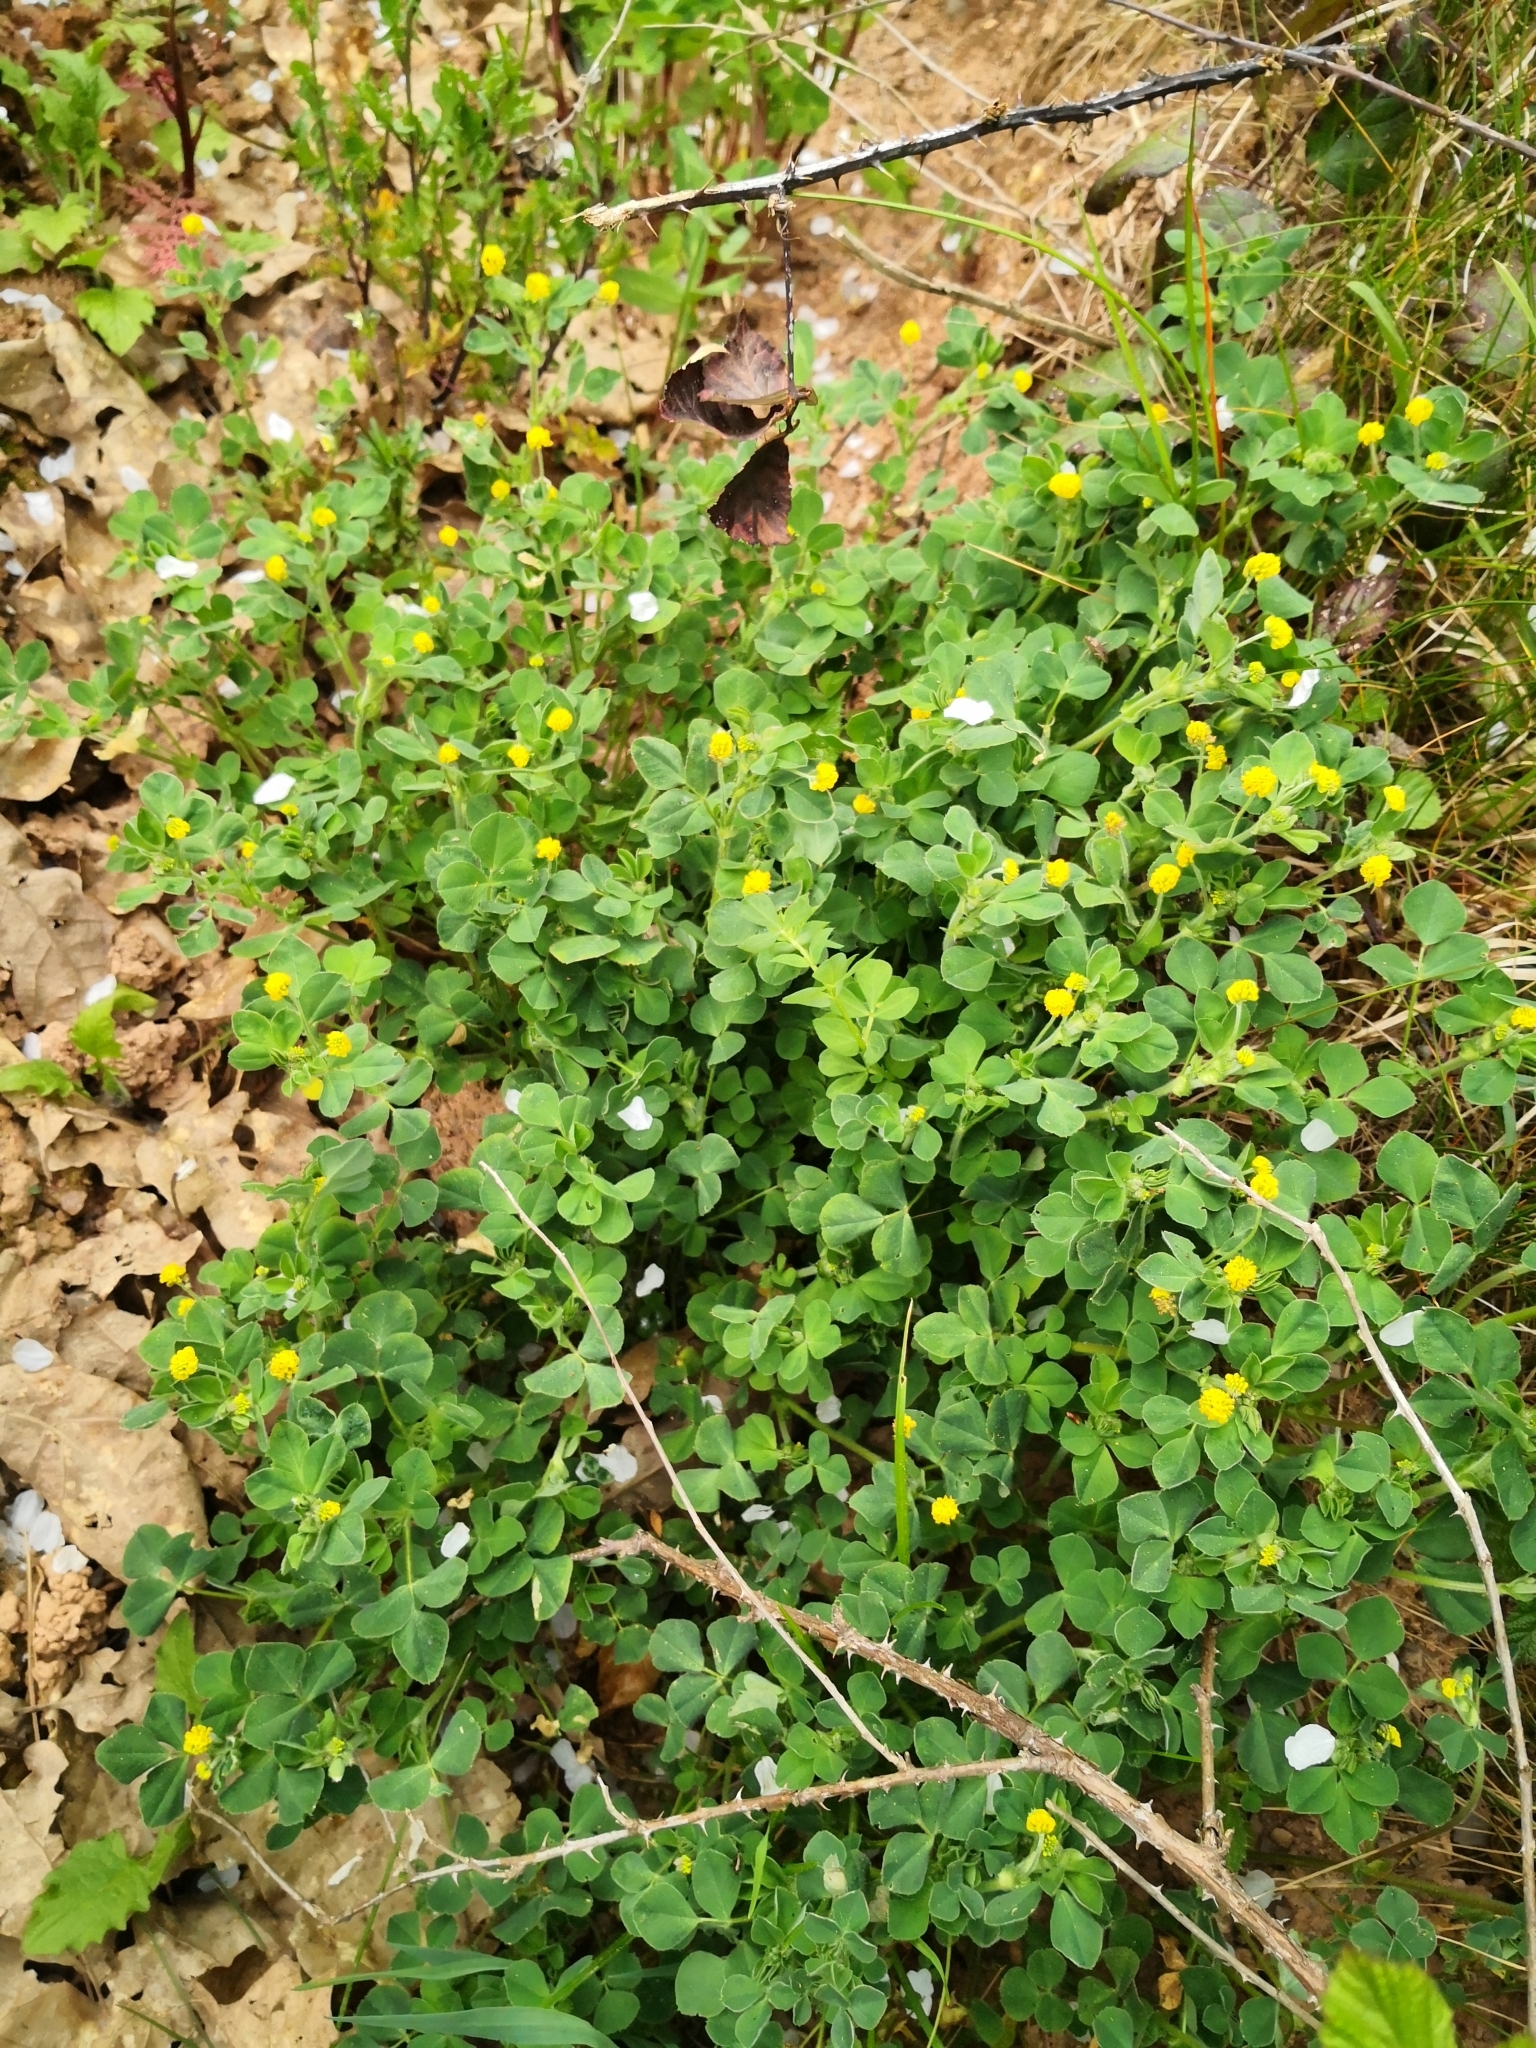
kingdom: Plantae
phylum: Tracheophyta
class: Magnoliopsida
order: Fabales
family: Fabaceae
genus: Medicago
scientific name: Medicago lupulina
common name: Black medick
